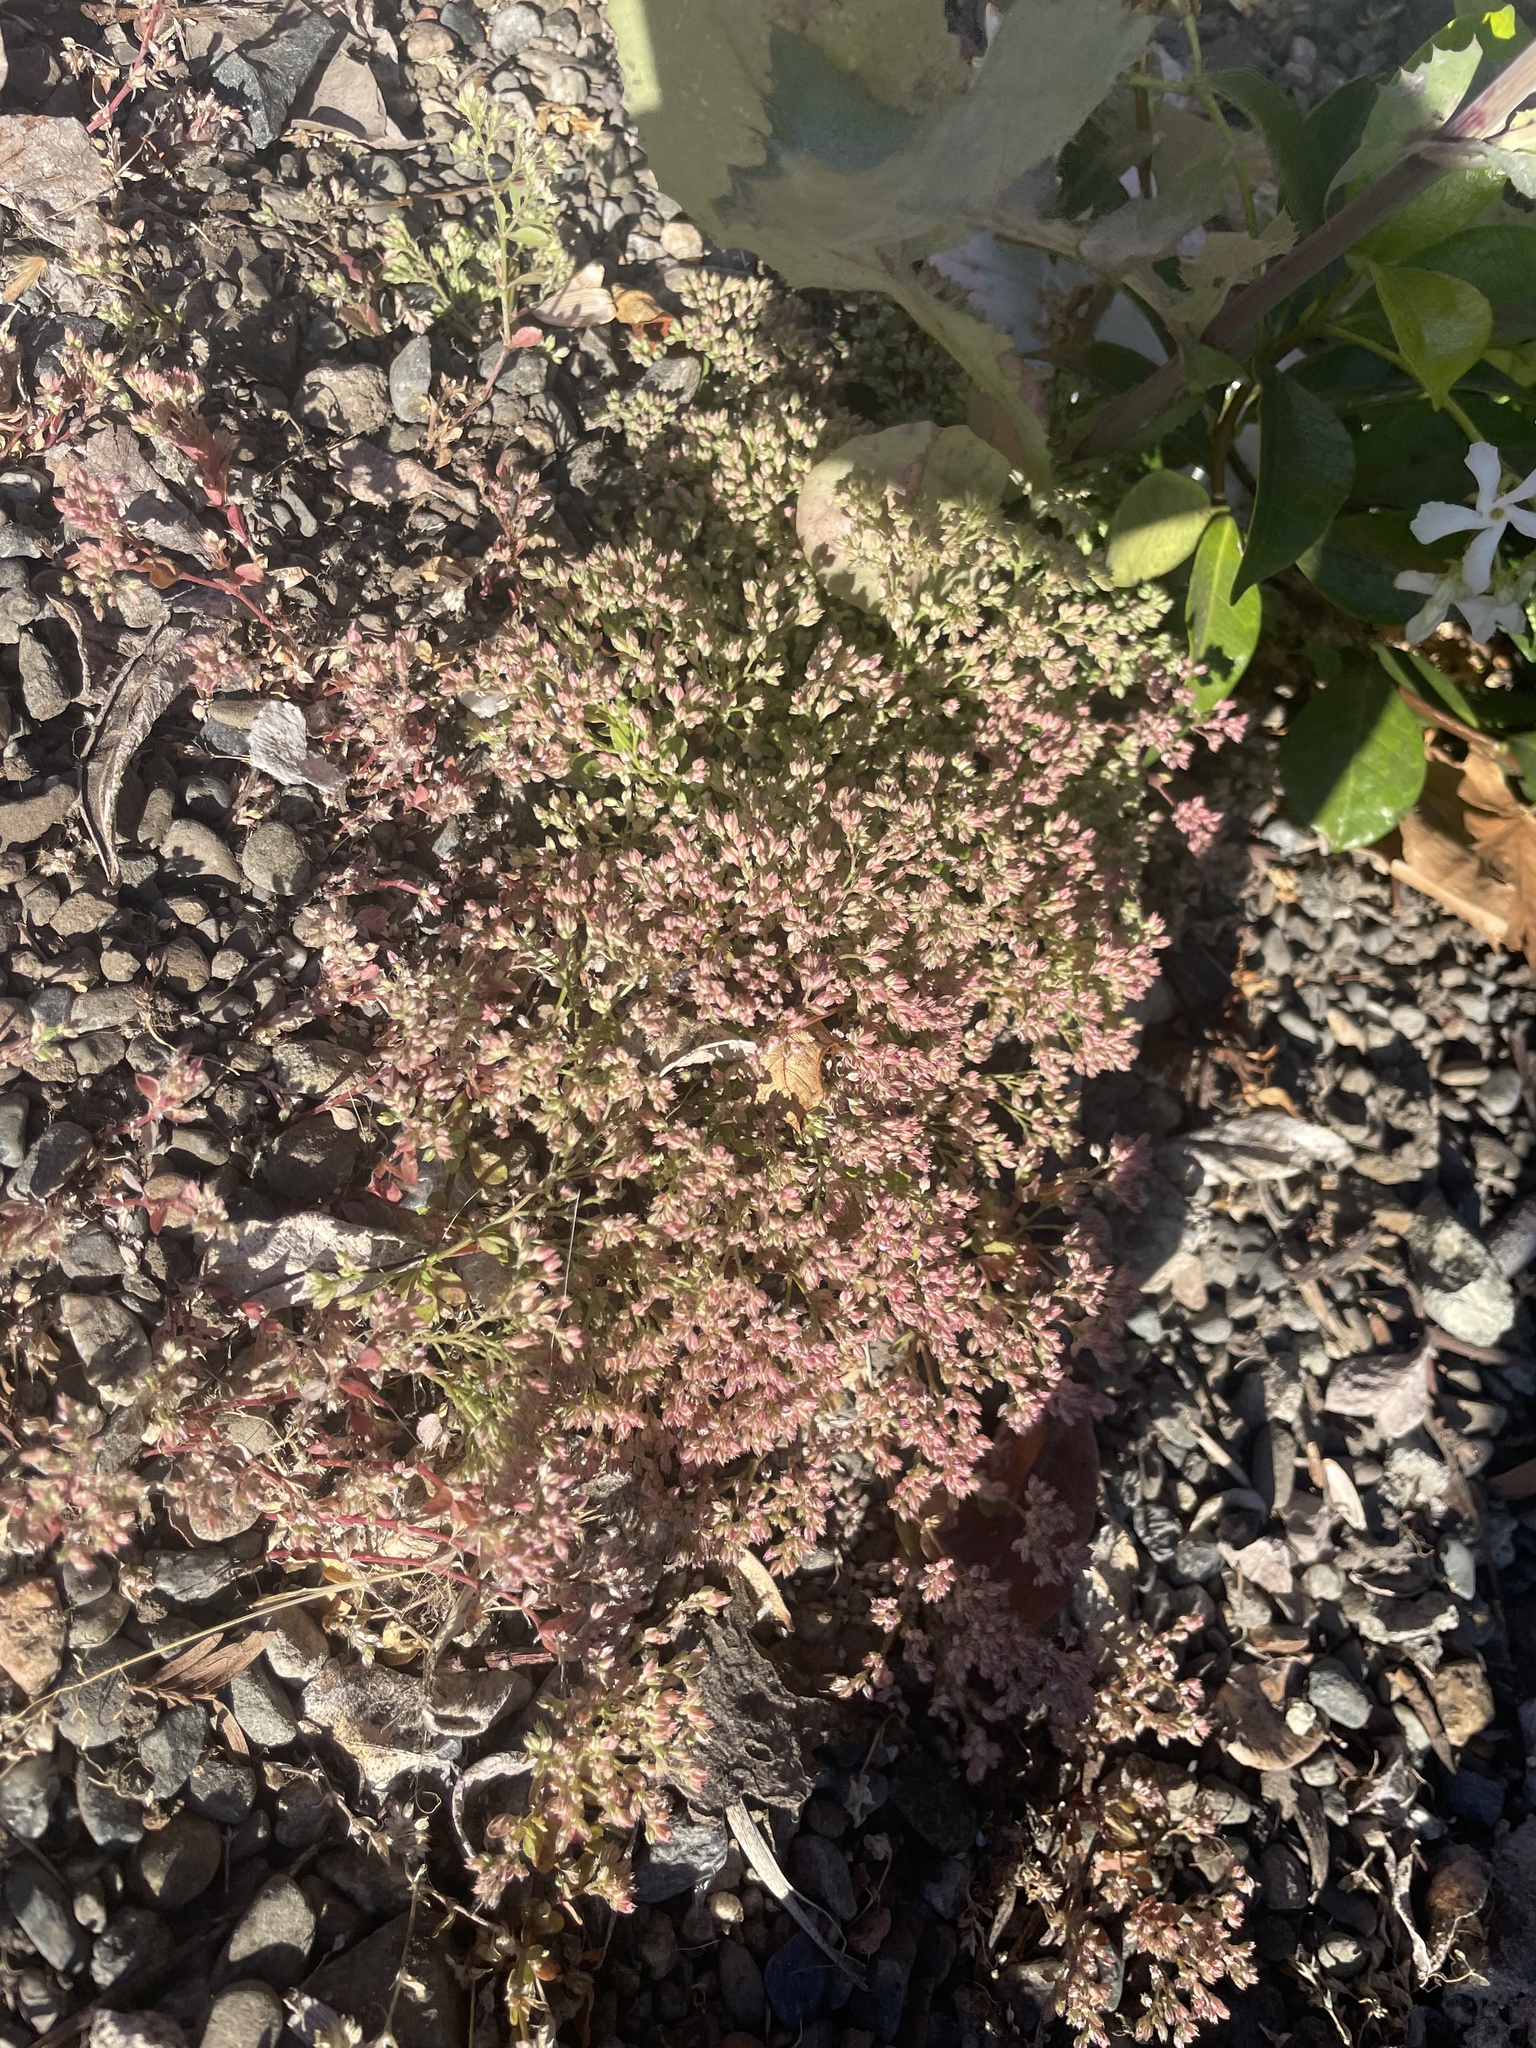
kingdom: Plantae
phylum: Tracheophyta
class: Magnoliopsida
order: Caryophyllales
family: Caryophyllaceae
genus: Polycarpon
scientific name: Polycarpon tetraphyllum
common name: Four-leaved all-seed
